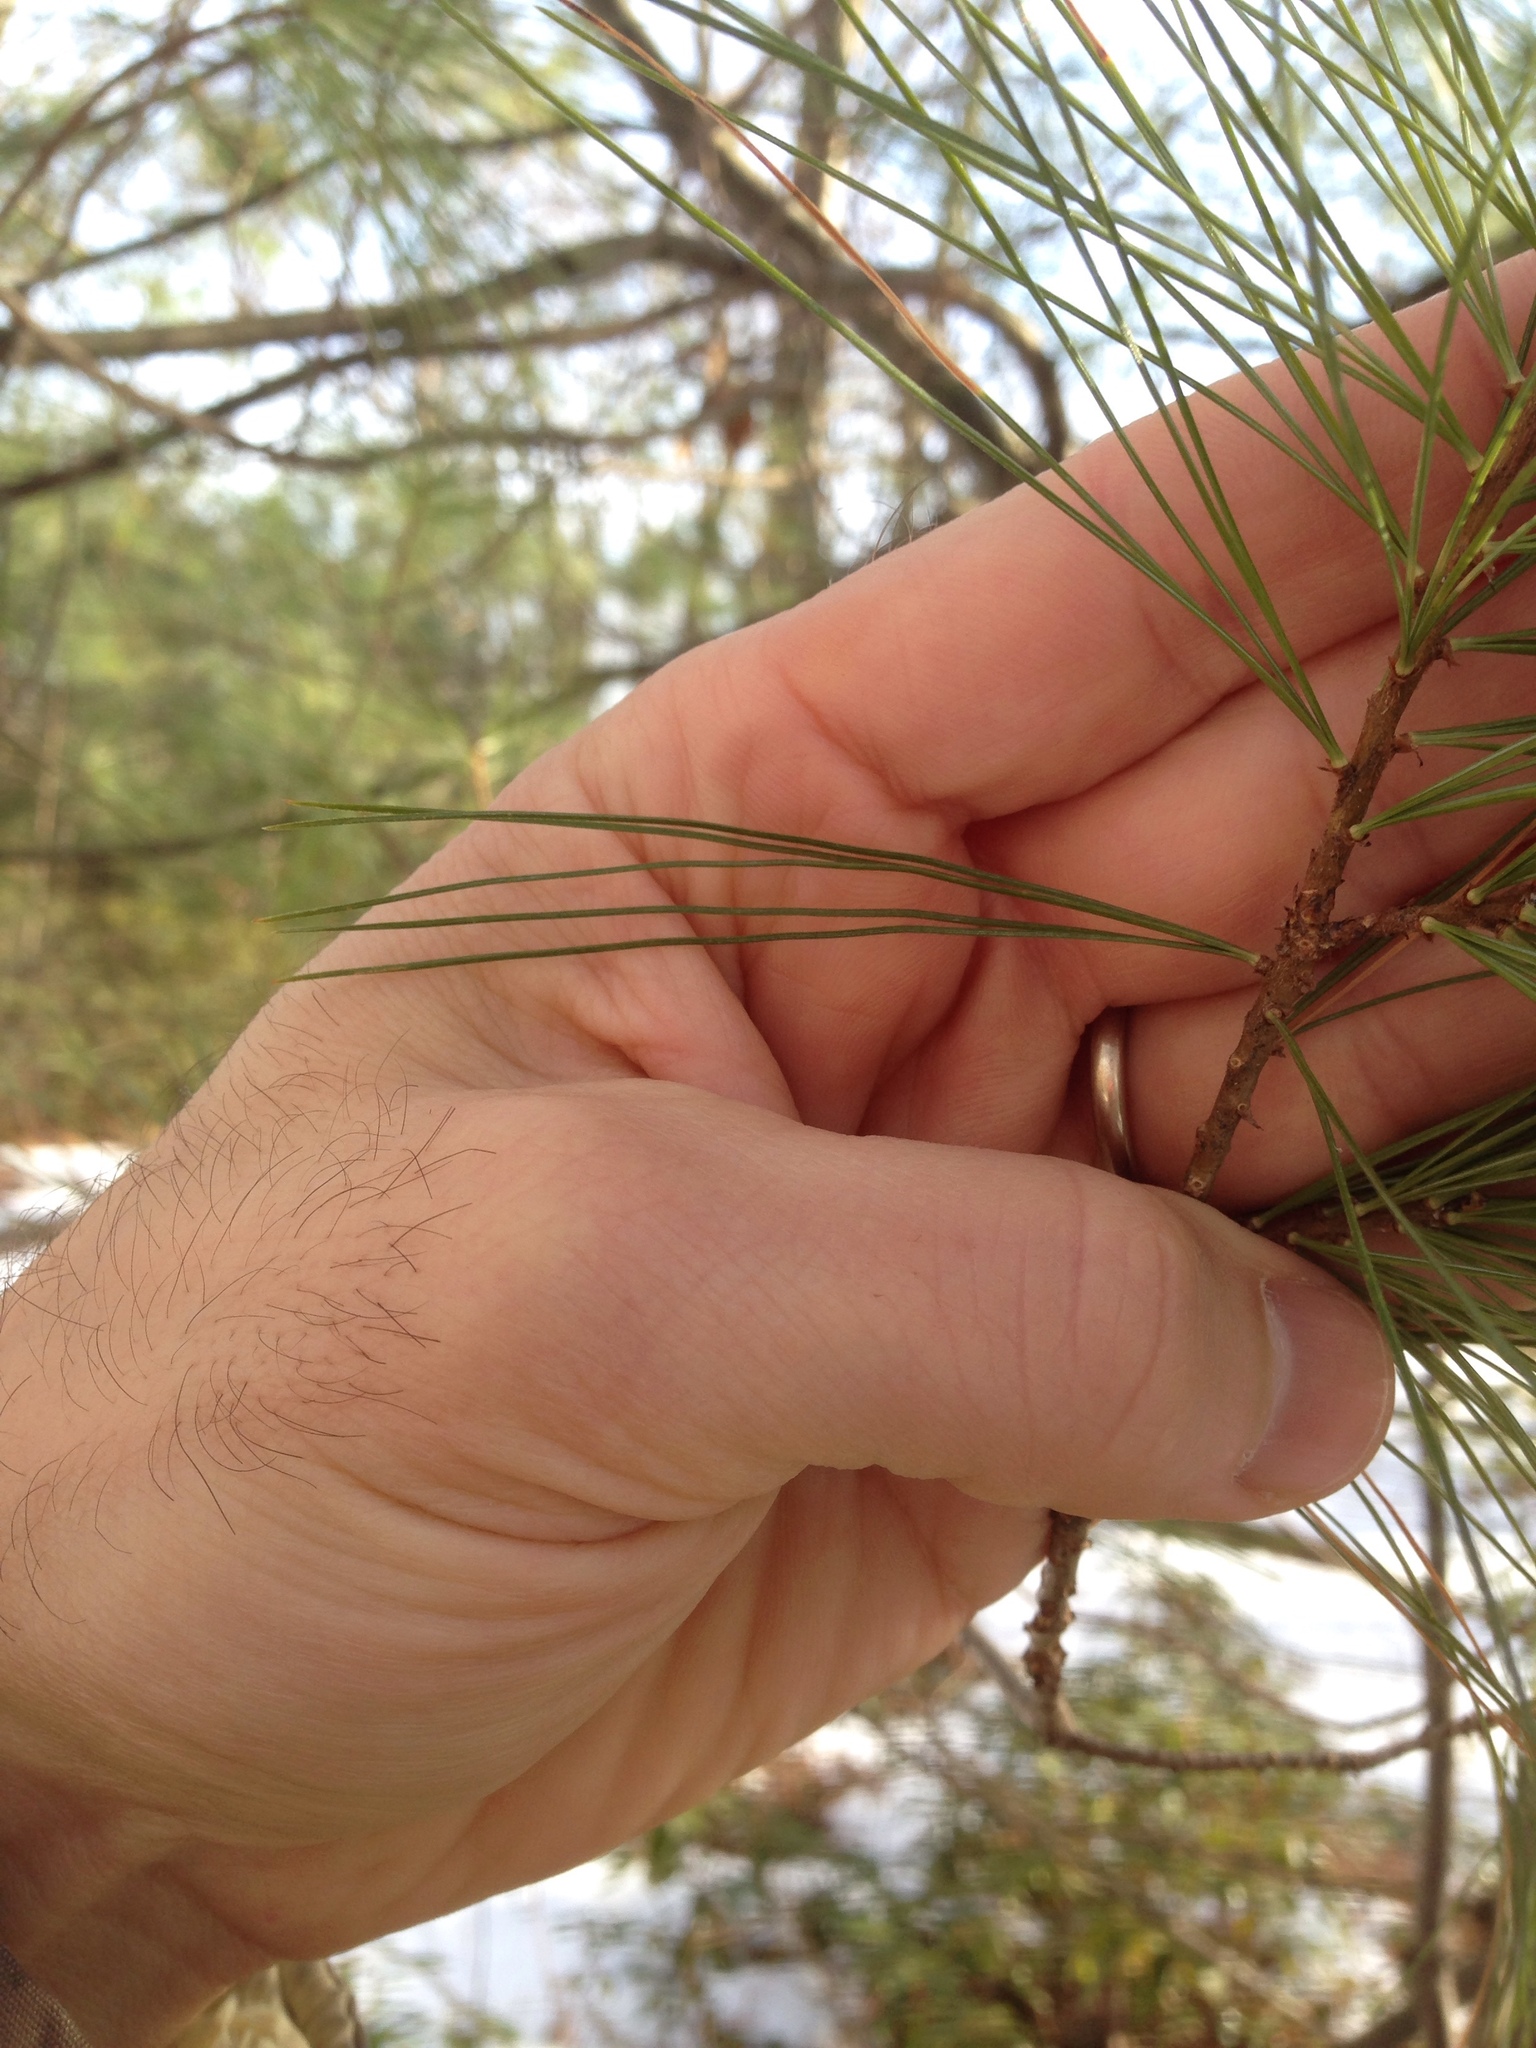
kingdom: Plantae
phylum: Tracheophyta
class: Pinopsida
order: Pinales
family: Pinaceae
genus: Pinus
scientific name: Pinus strobus
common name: Weymouth pine
